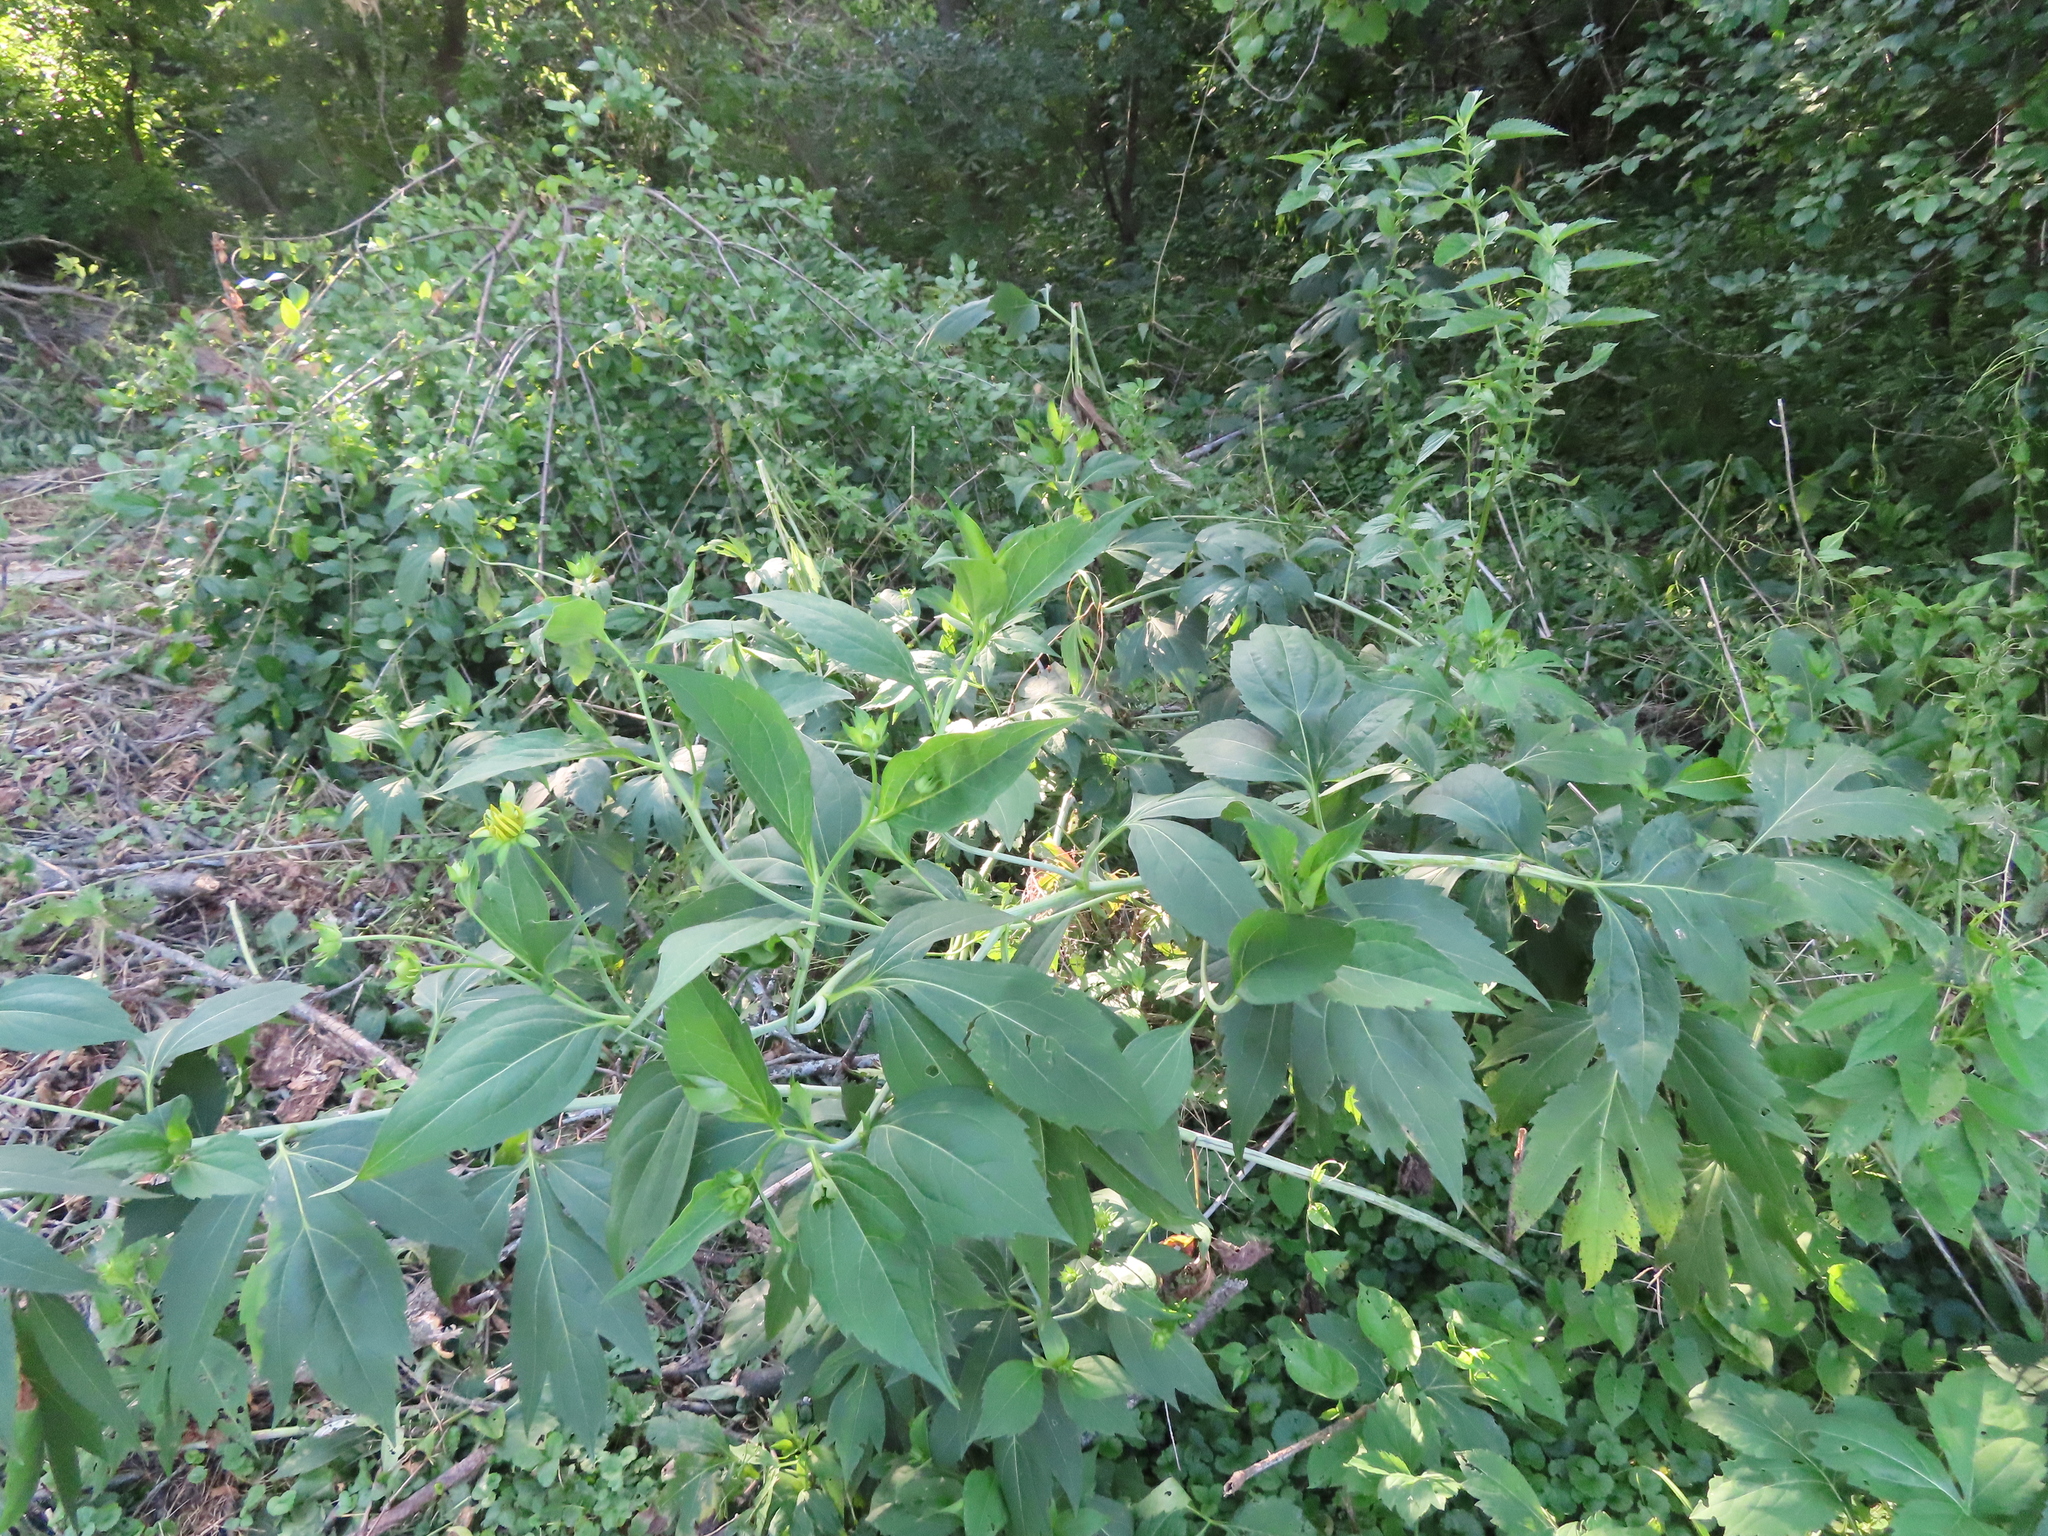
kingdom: Plantae
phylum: Tracheophyta
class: Magnoliopsida
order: Asterales
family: Asteraceae
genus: Rudbeckia
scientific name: Rudbeckia laciniata
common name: Coneflower
